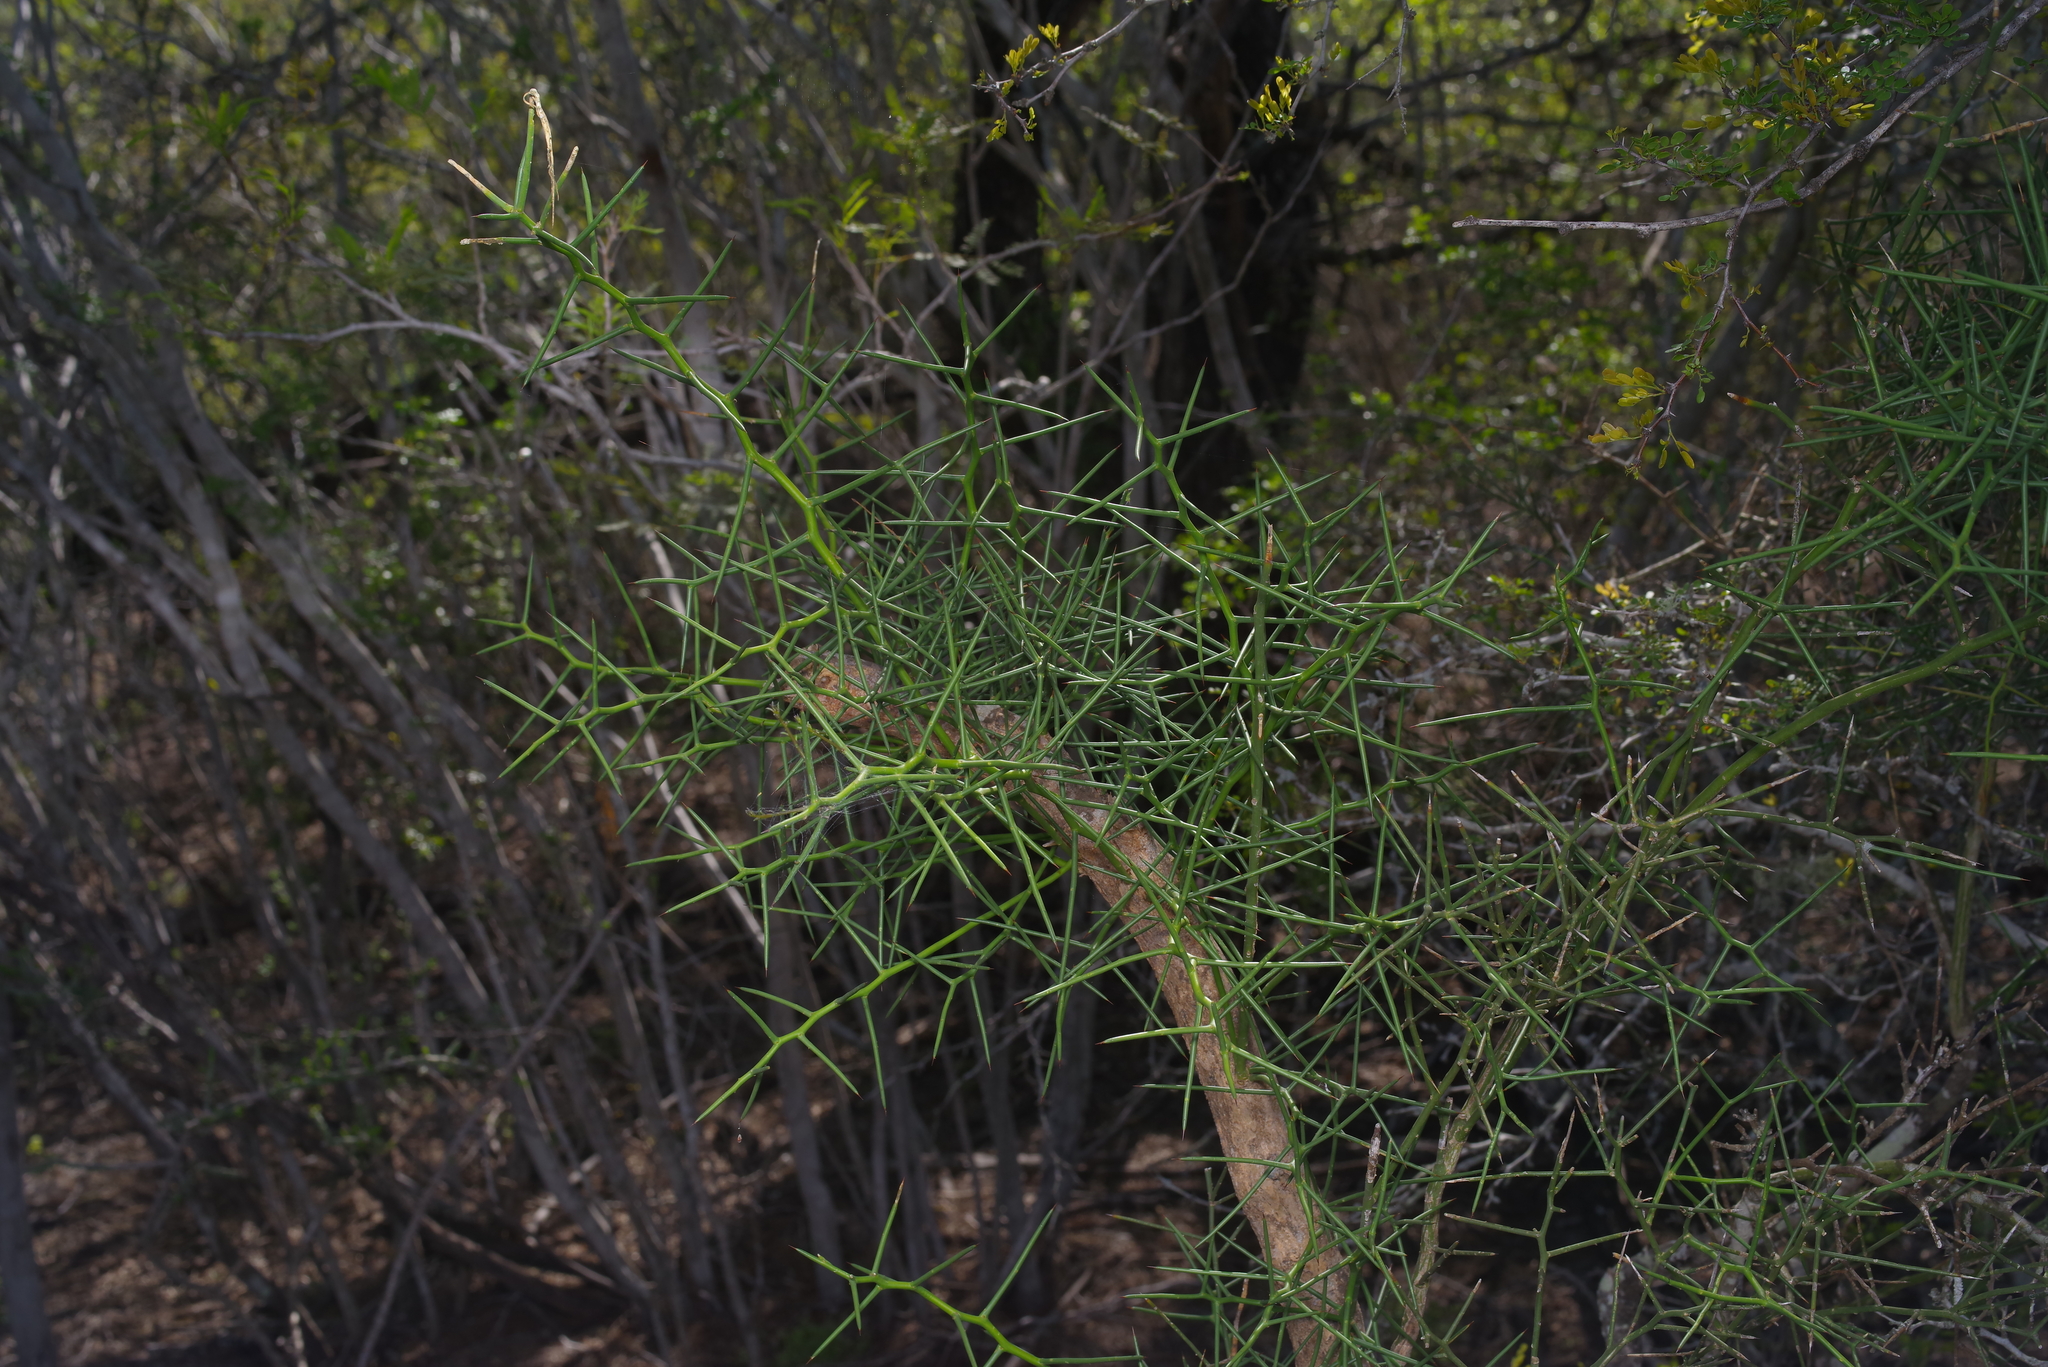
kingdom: Plantae
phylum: Tracheophyta
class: Magnoliopsida
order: Brassicales
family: Koeberliniaceae
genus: Koeberlinia
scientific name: Koeberlinia spinosa
